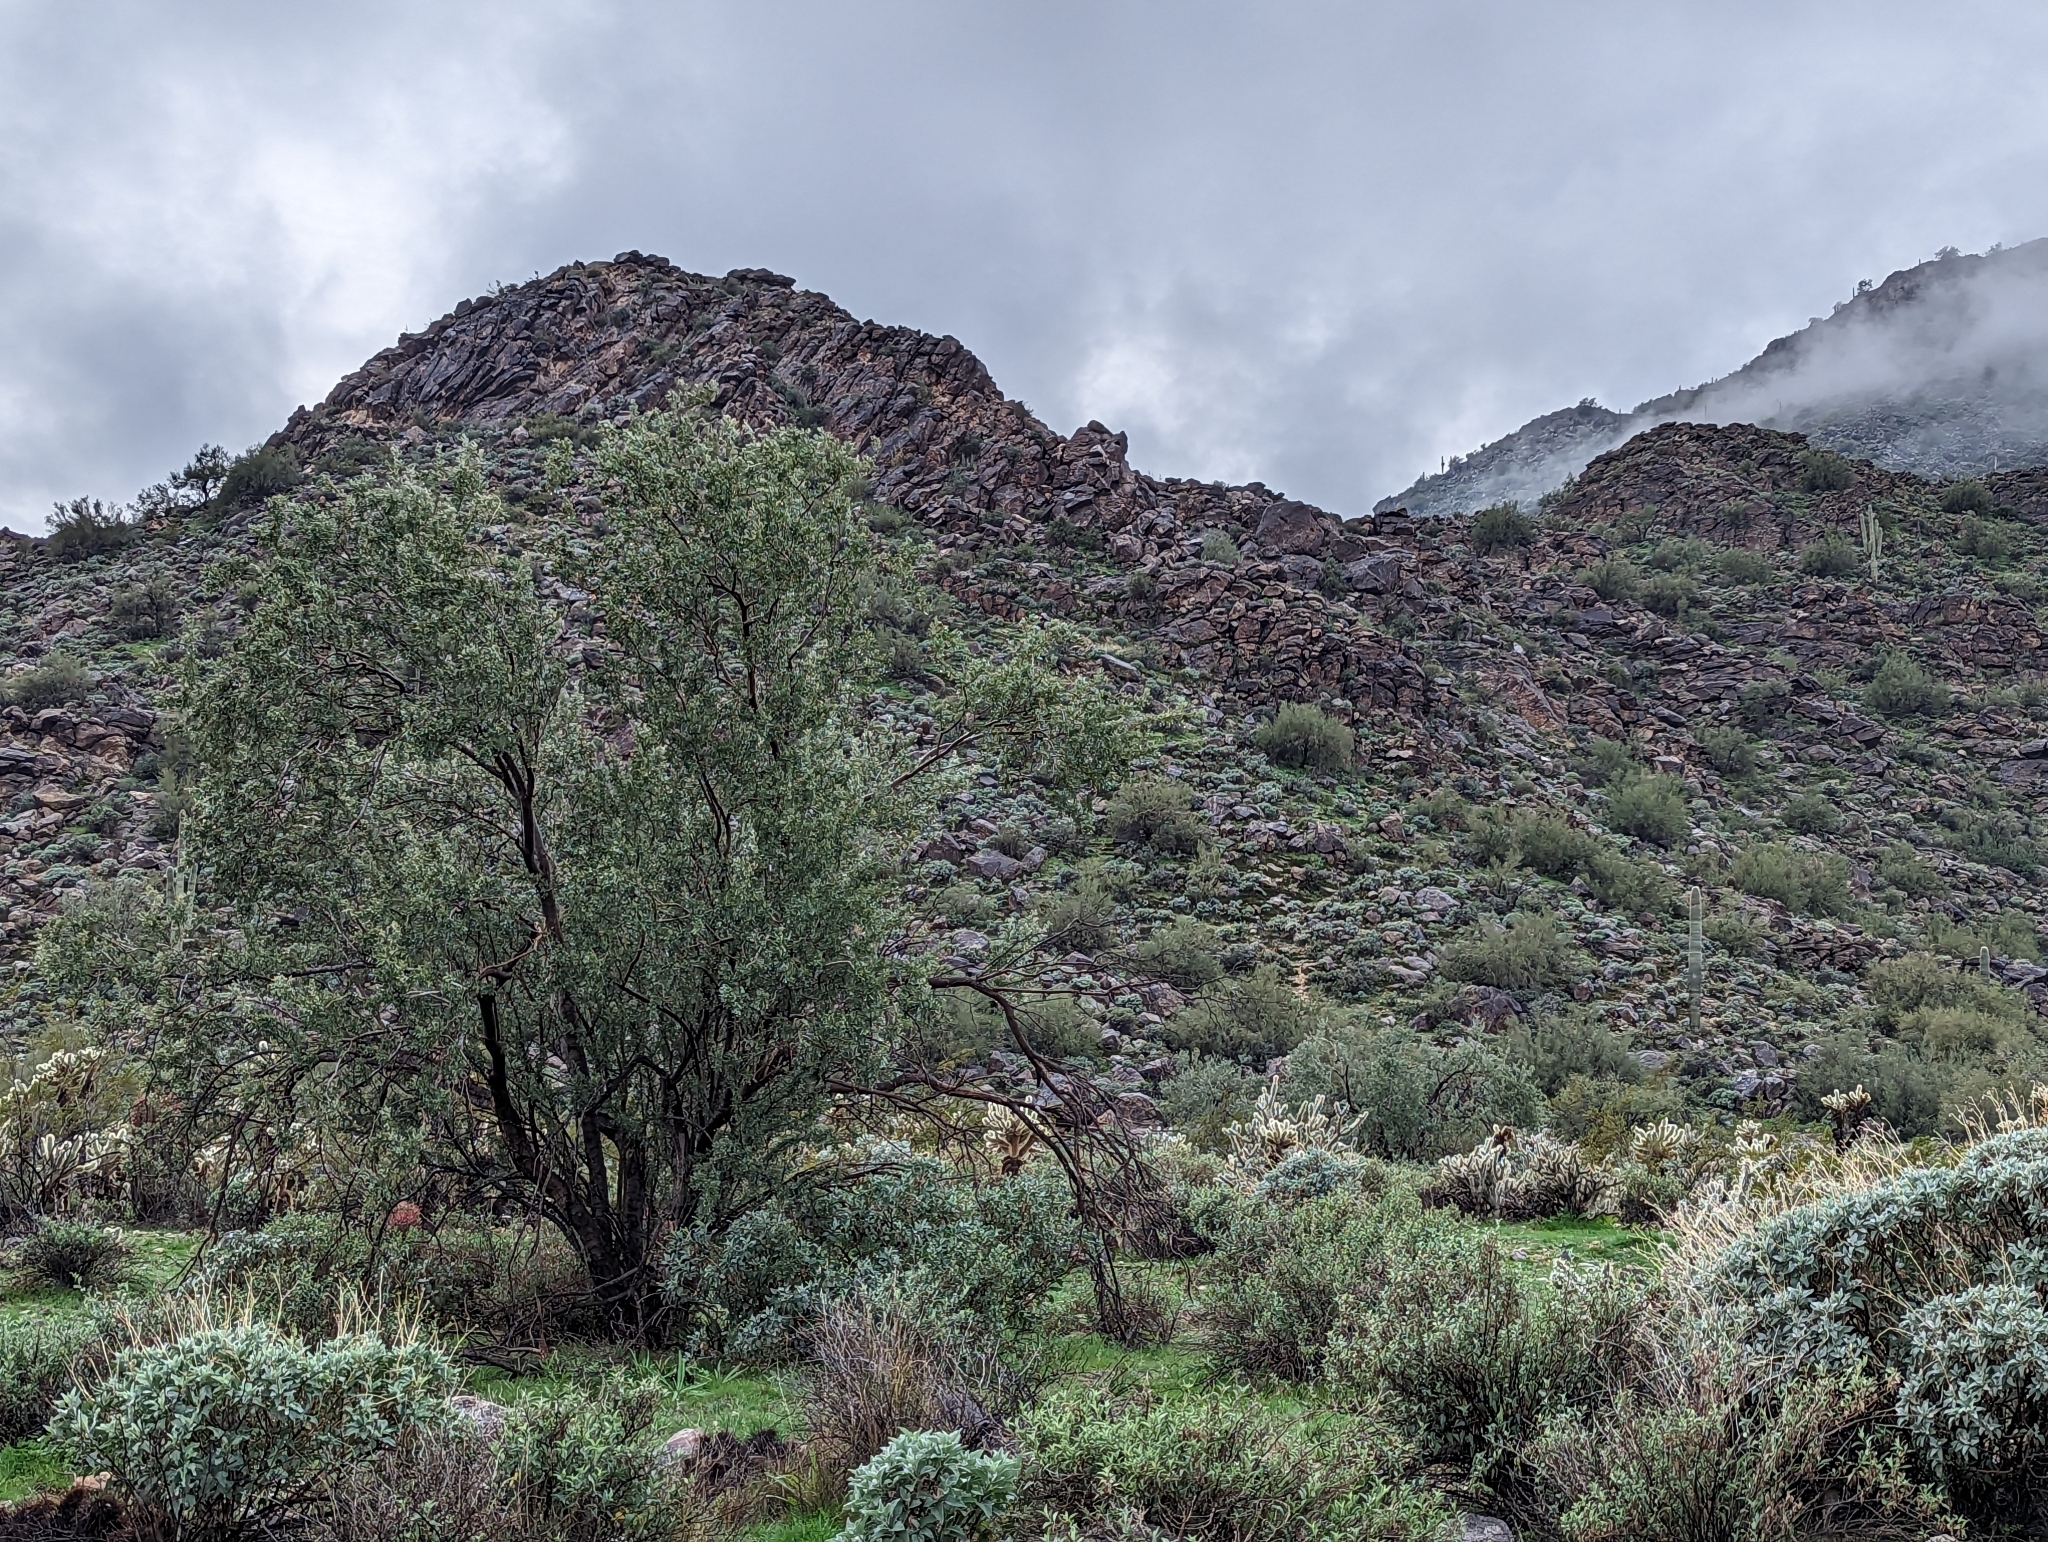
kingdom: Plantae
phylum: Tracheophyta
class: Magnoliopsida
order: Fabales
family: Fabaceae
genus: Olneya
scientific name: Olneya tesota
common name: Desert ironwood
